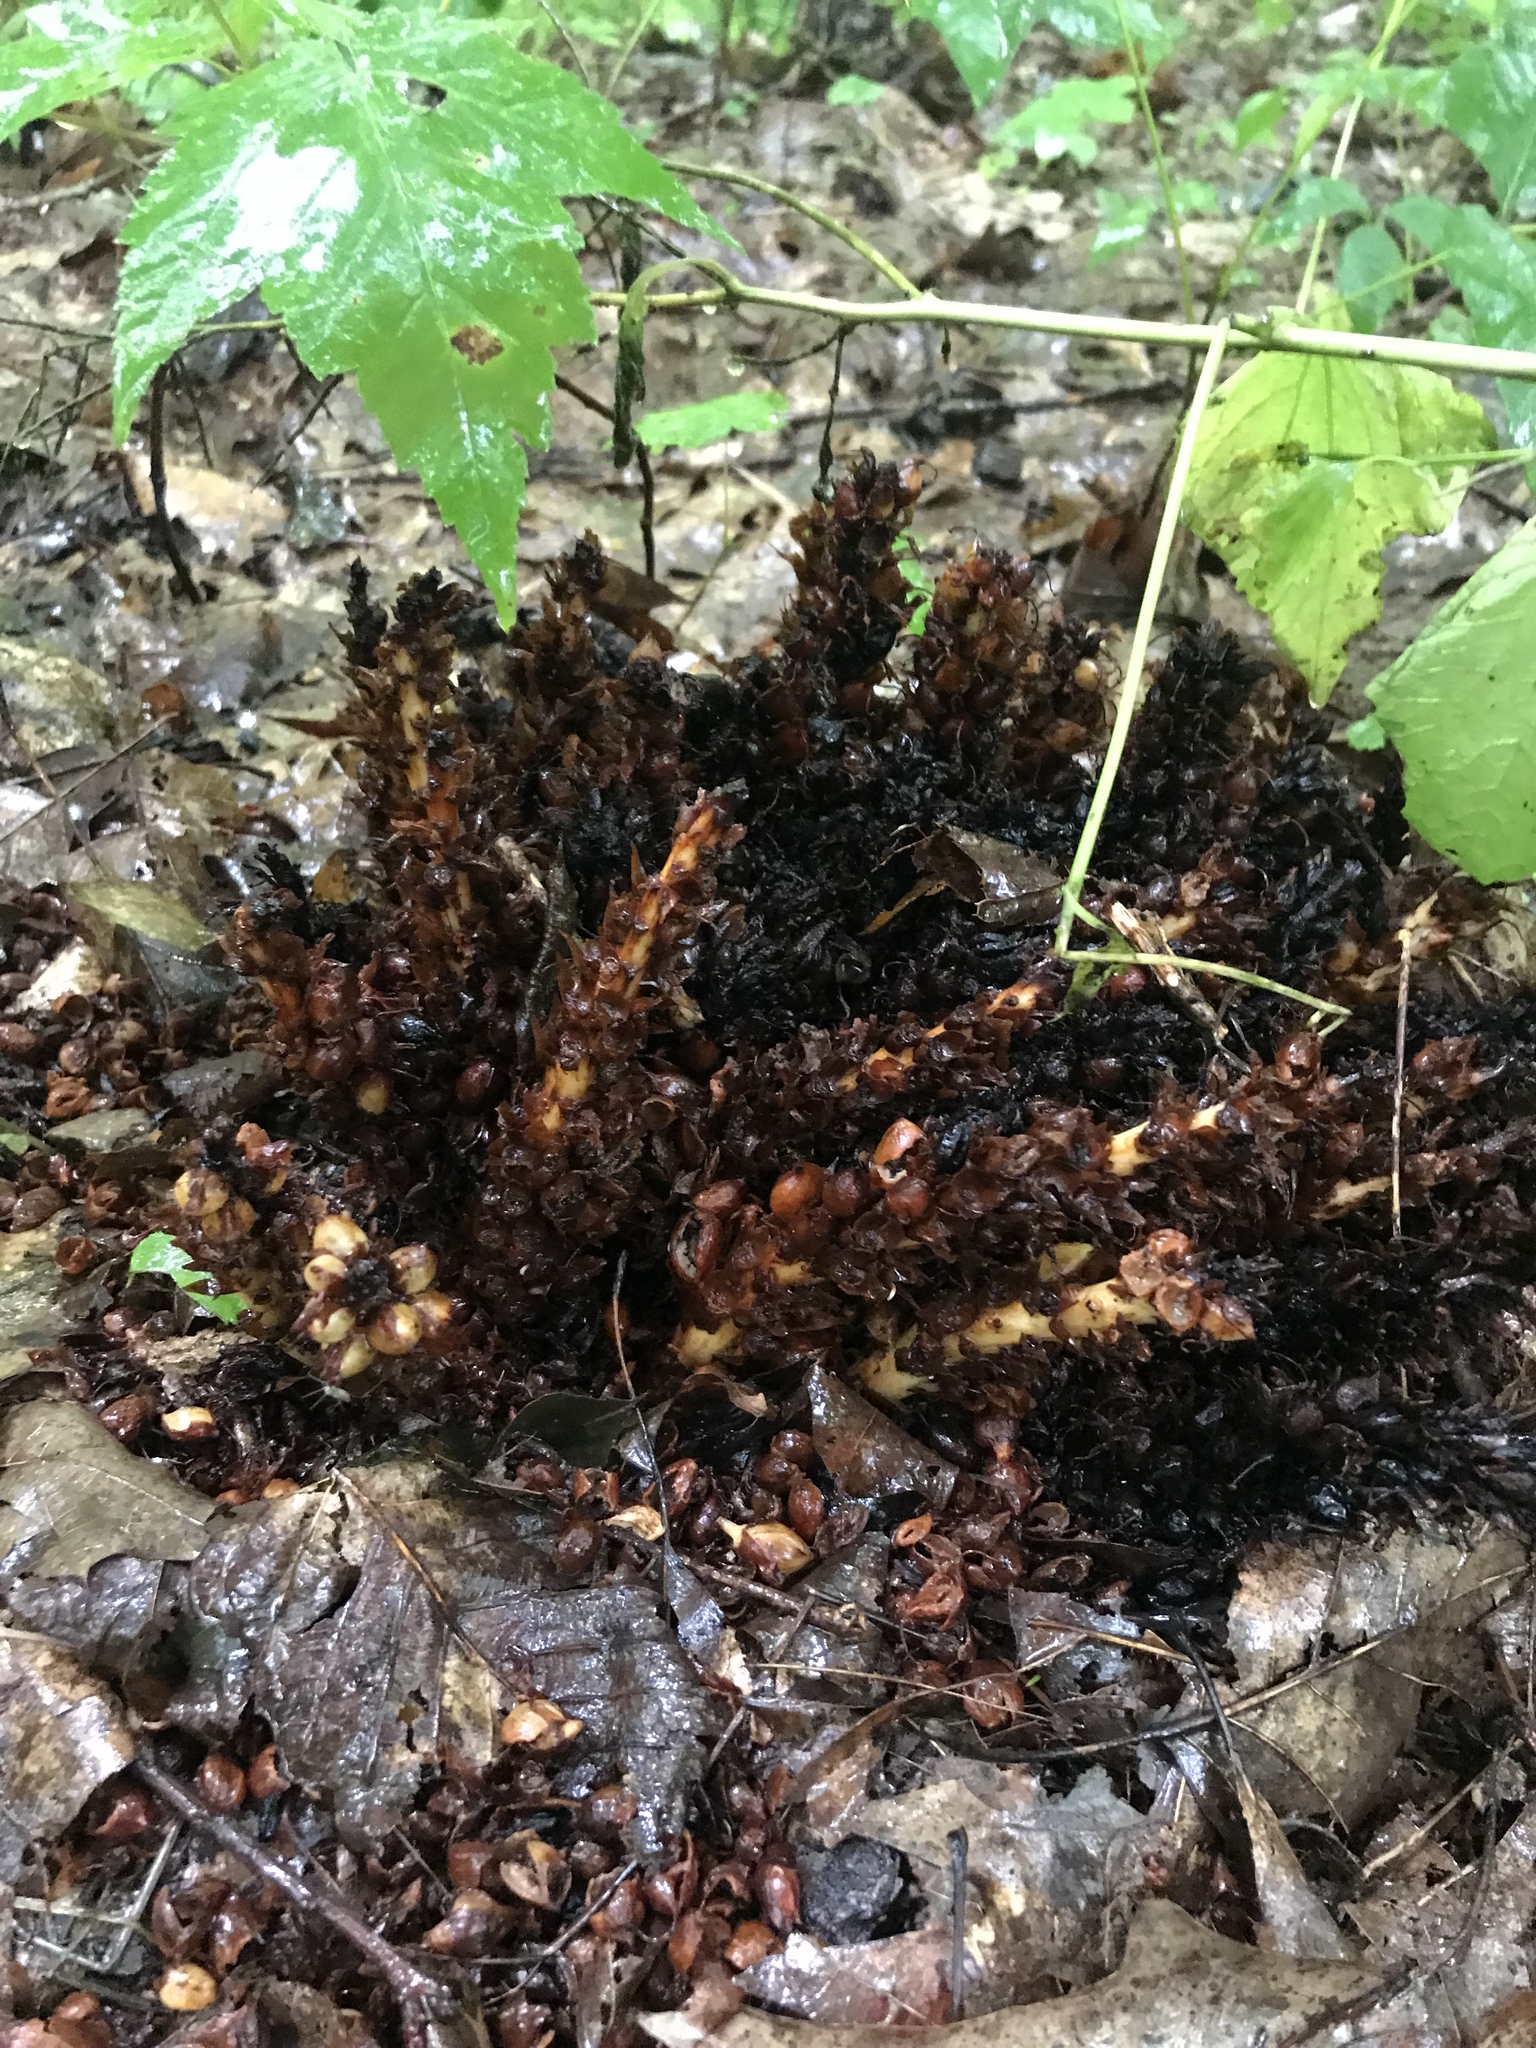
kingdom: Plantae
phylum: Tracheophyta
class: Magnoliopsida
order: Lamiales
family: Orobanchaceae
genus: Conopholis
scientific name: Conopholis americana
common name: American cancer-root
